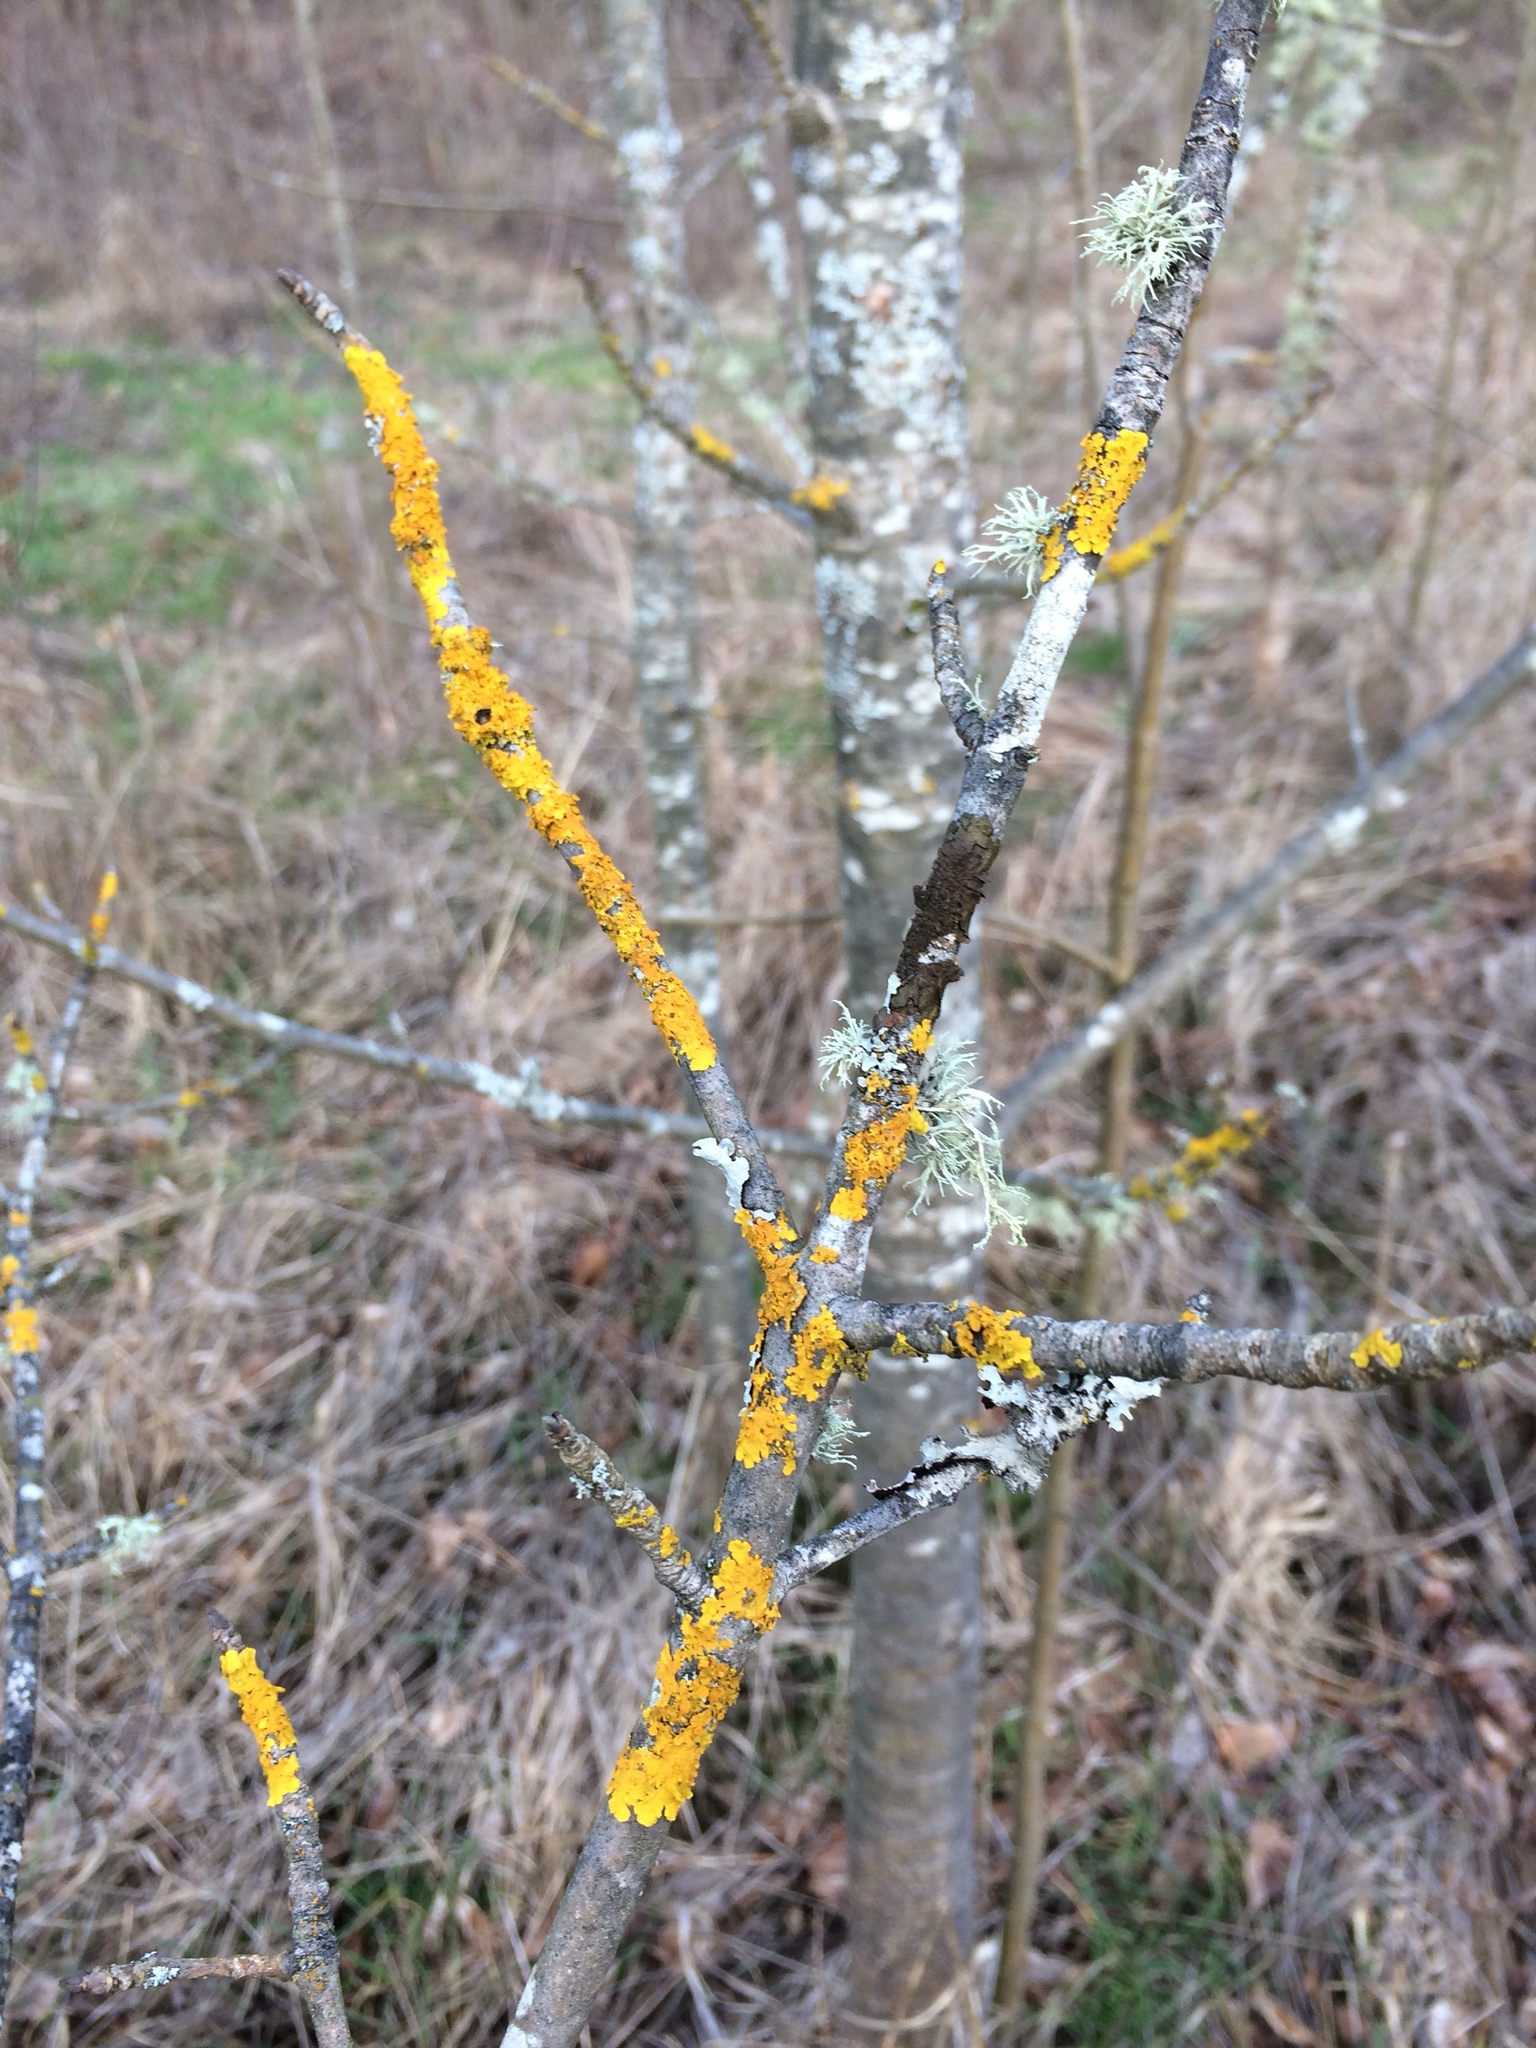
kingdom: Fungi
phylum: Ascomycota
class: Lecanoromycetes
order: Teloschistales
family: Teloschistaceae
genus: Xanthoria
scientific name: Xanthoria parietina
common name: Common orange lichen
